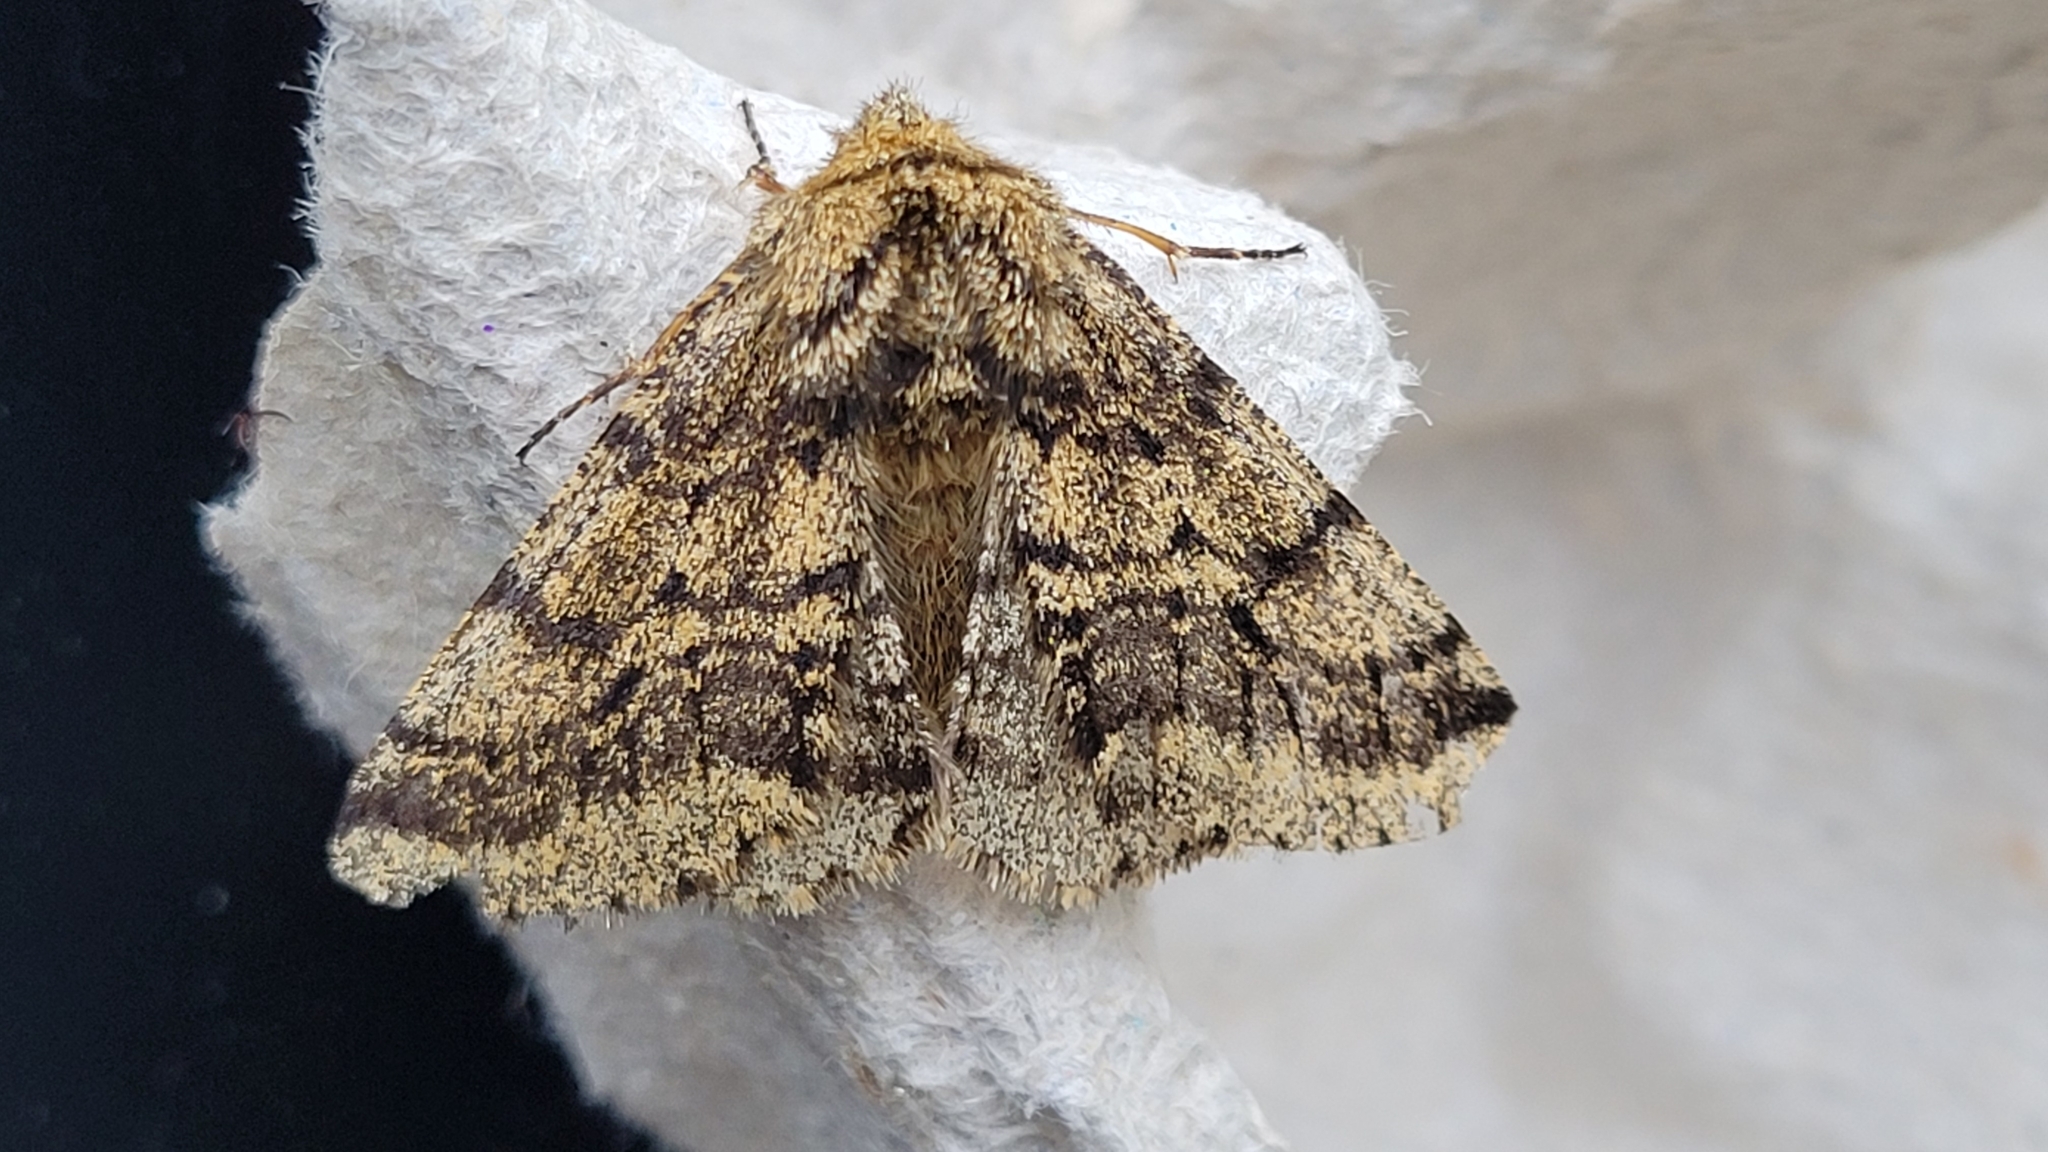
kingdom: Animalia
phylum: Arthropoda
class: Insecta
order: Lepidoptera
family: Geometridae
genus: Lycia
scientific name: Lycia hirtaria
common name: Brindled beauty
